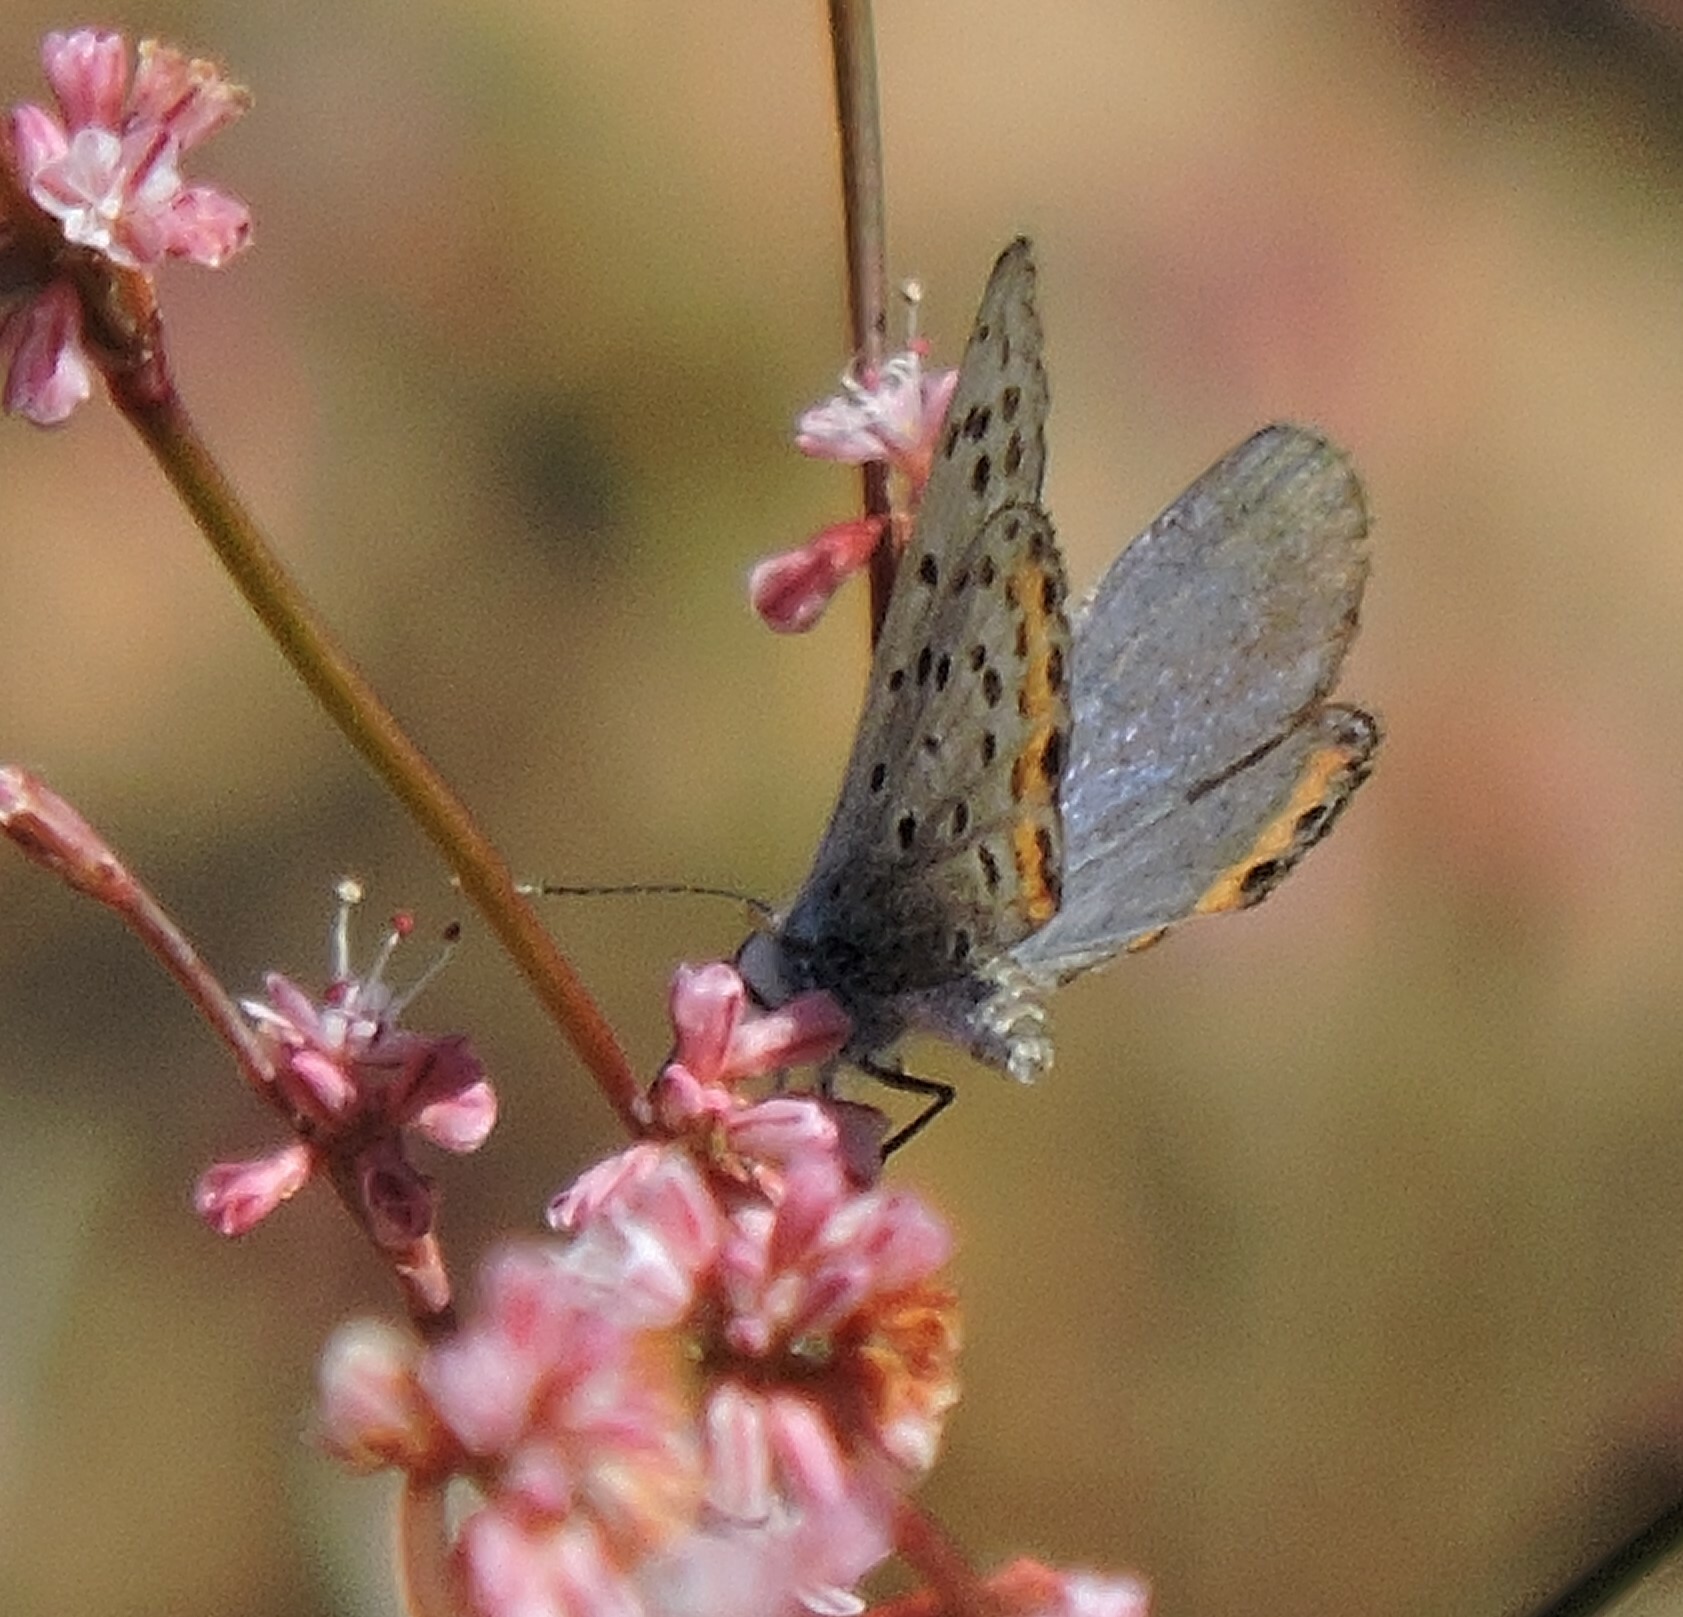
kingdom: Animalia
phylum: Arthropoda
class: Insecta
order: Lepidoptera
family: Lycaenidae
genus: Icaricia
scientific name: Icaricia acmon
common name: Acmon blue
